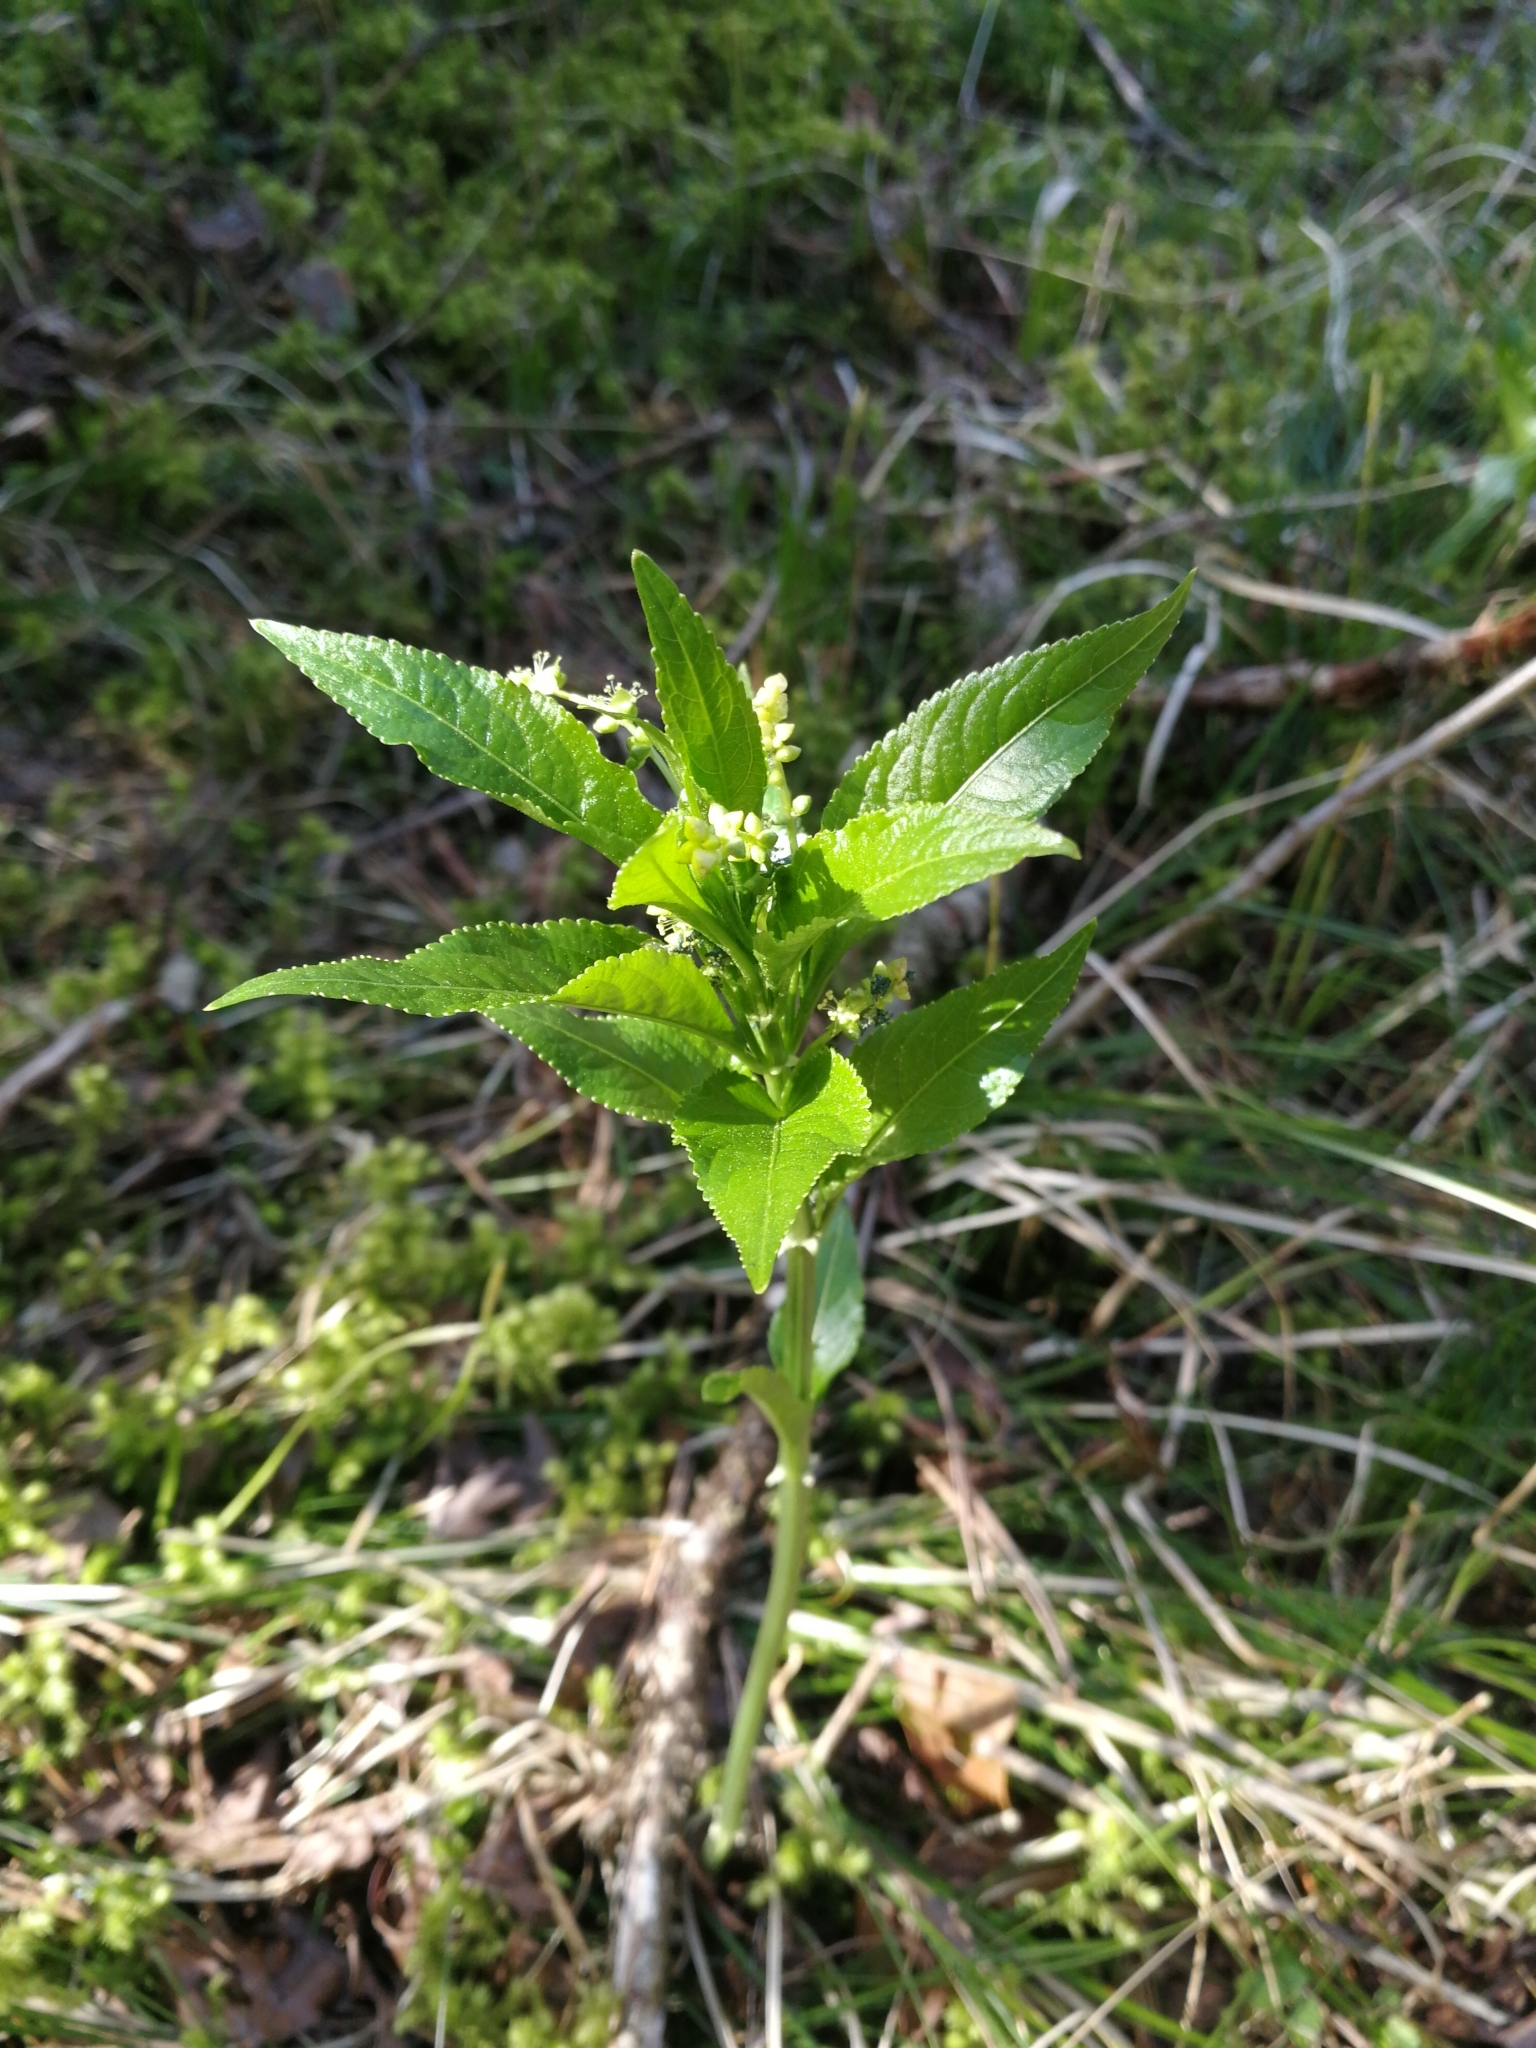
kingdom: Plantae
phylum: Tracheophyta
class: Magnoliopsida
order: Malpighiales
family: Euphorbiaceae
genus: Mercurialis
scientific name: Mercurialis perennis
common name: Dog mercury
